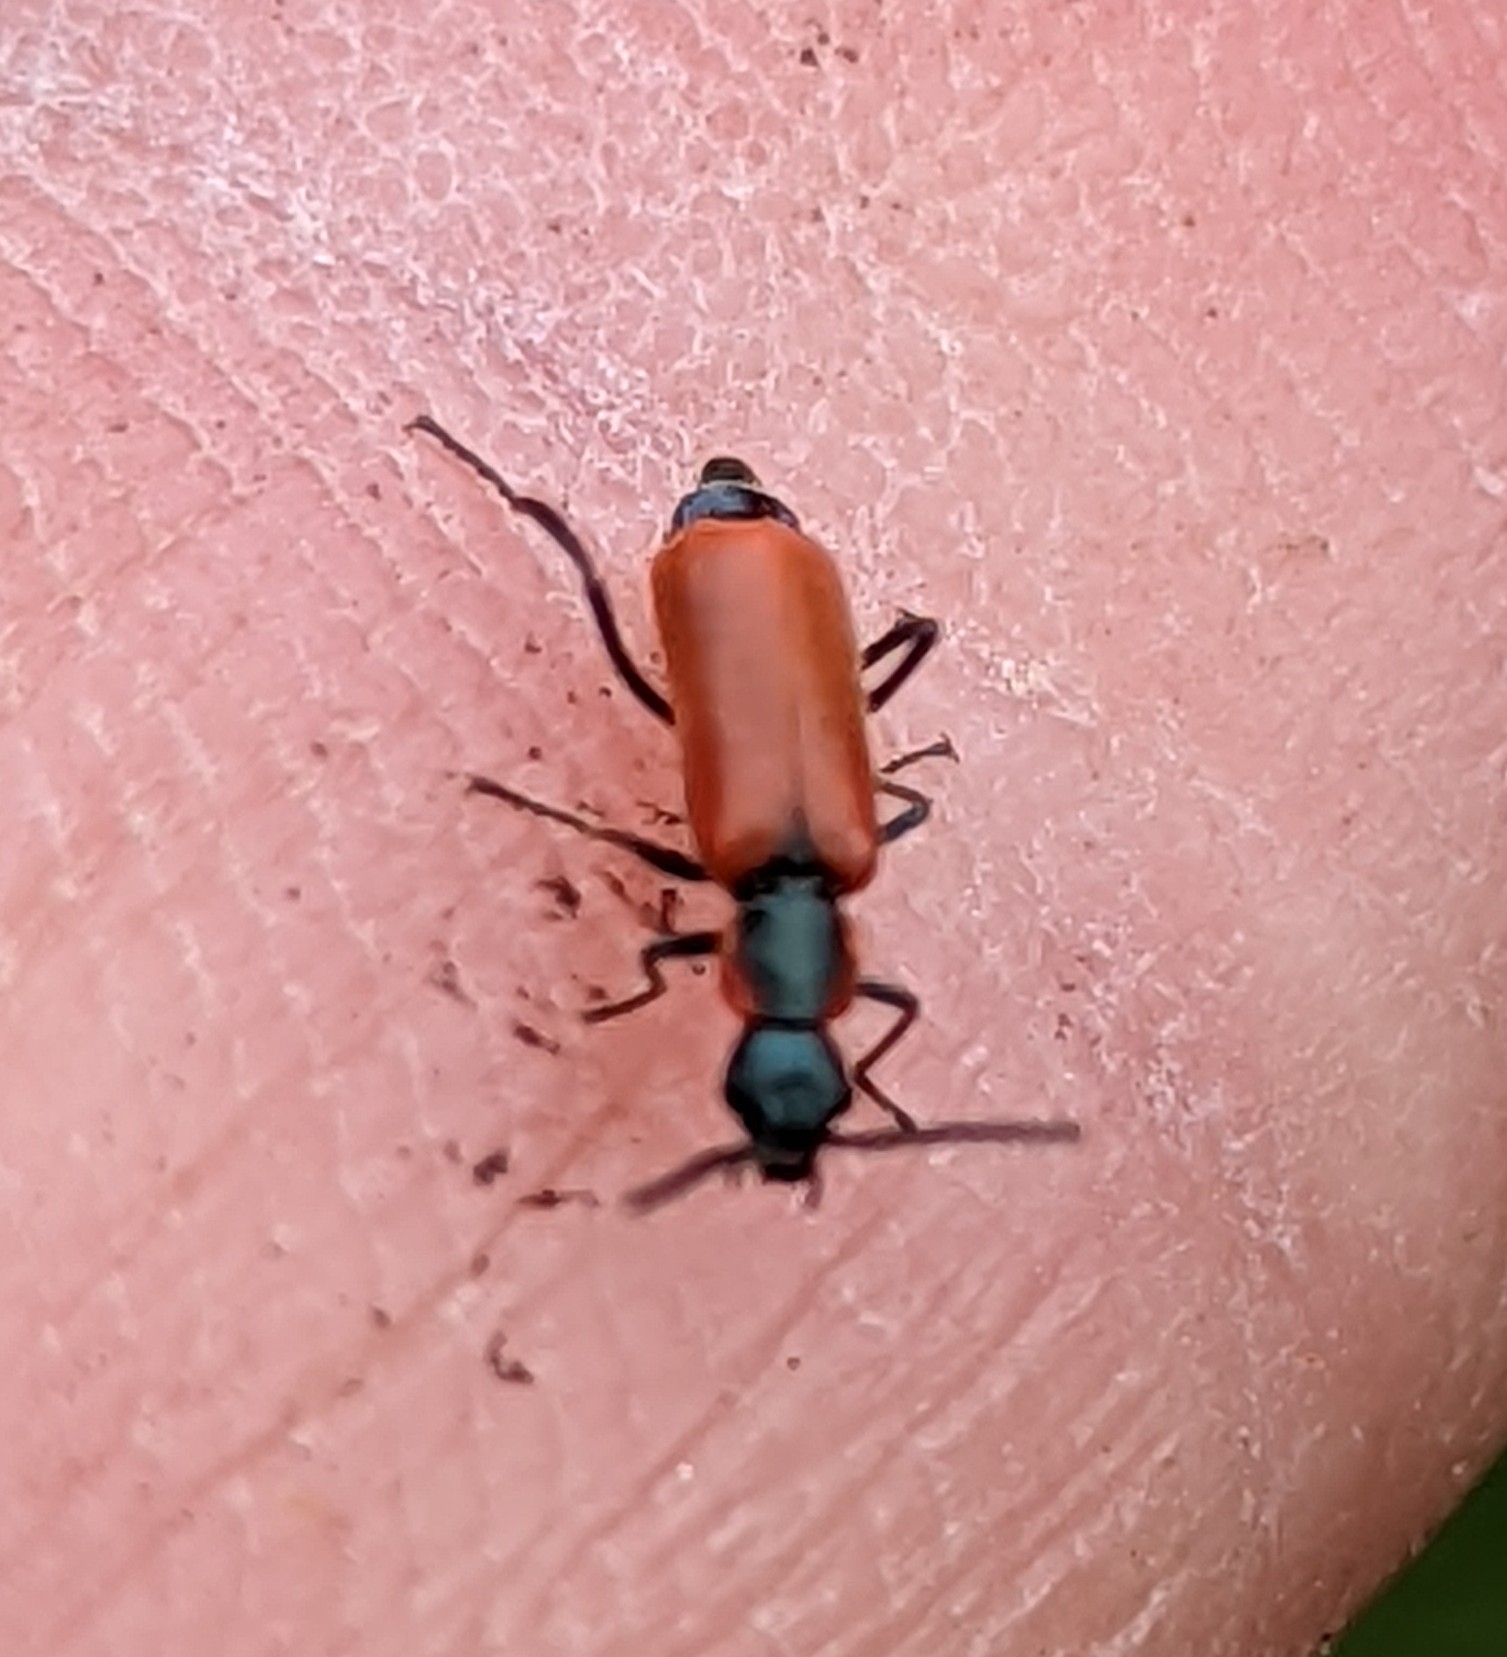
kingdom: Animalia
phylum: Arthropoda
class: Insecta
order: Coleoptera
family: Melyridae
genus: Anthocomus
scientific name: Anthocomus rufus
